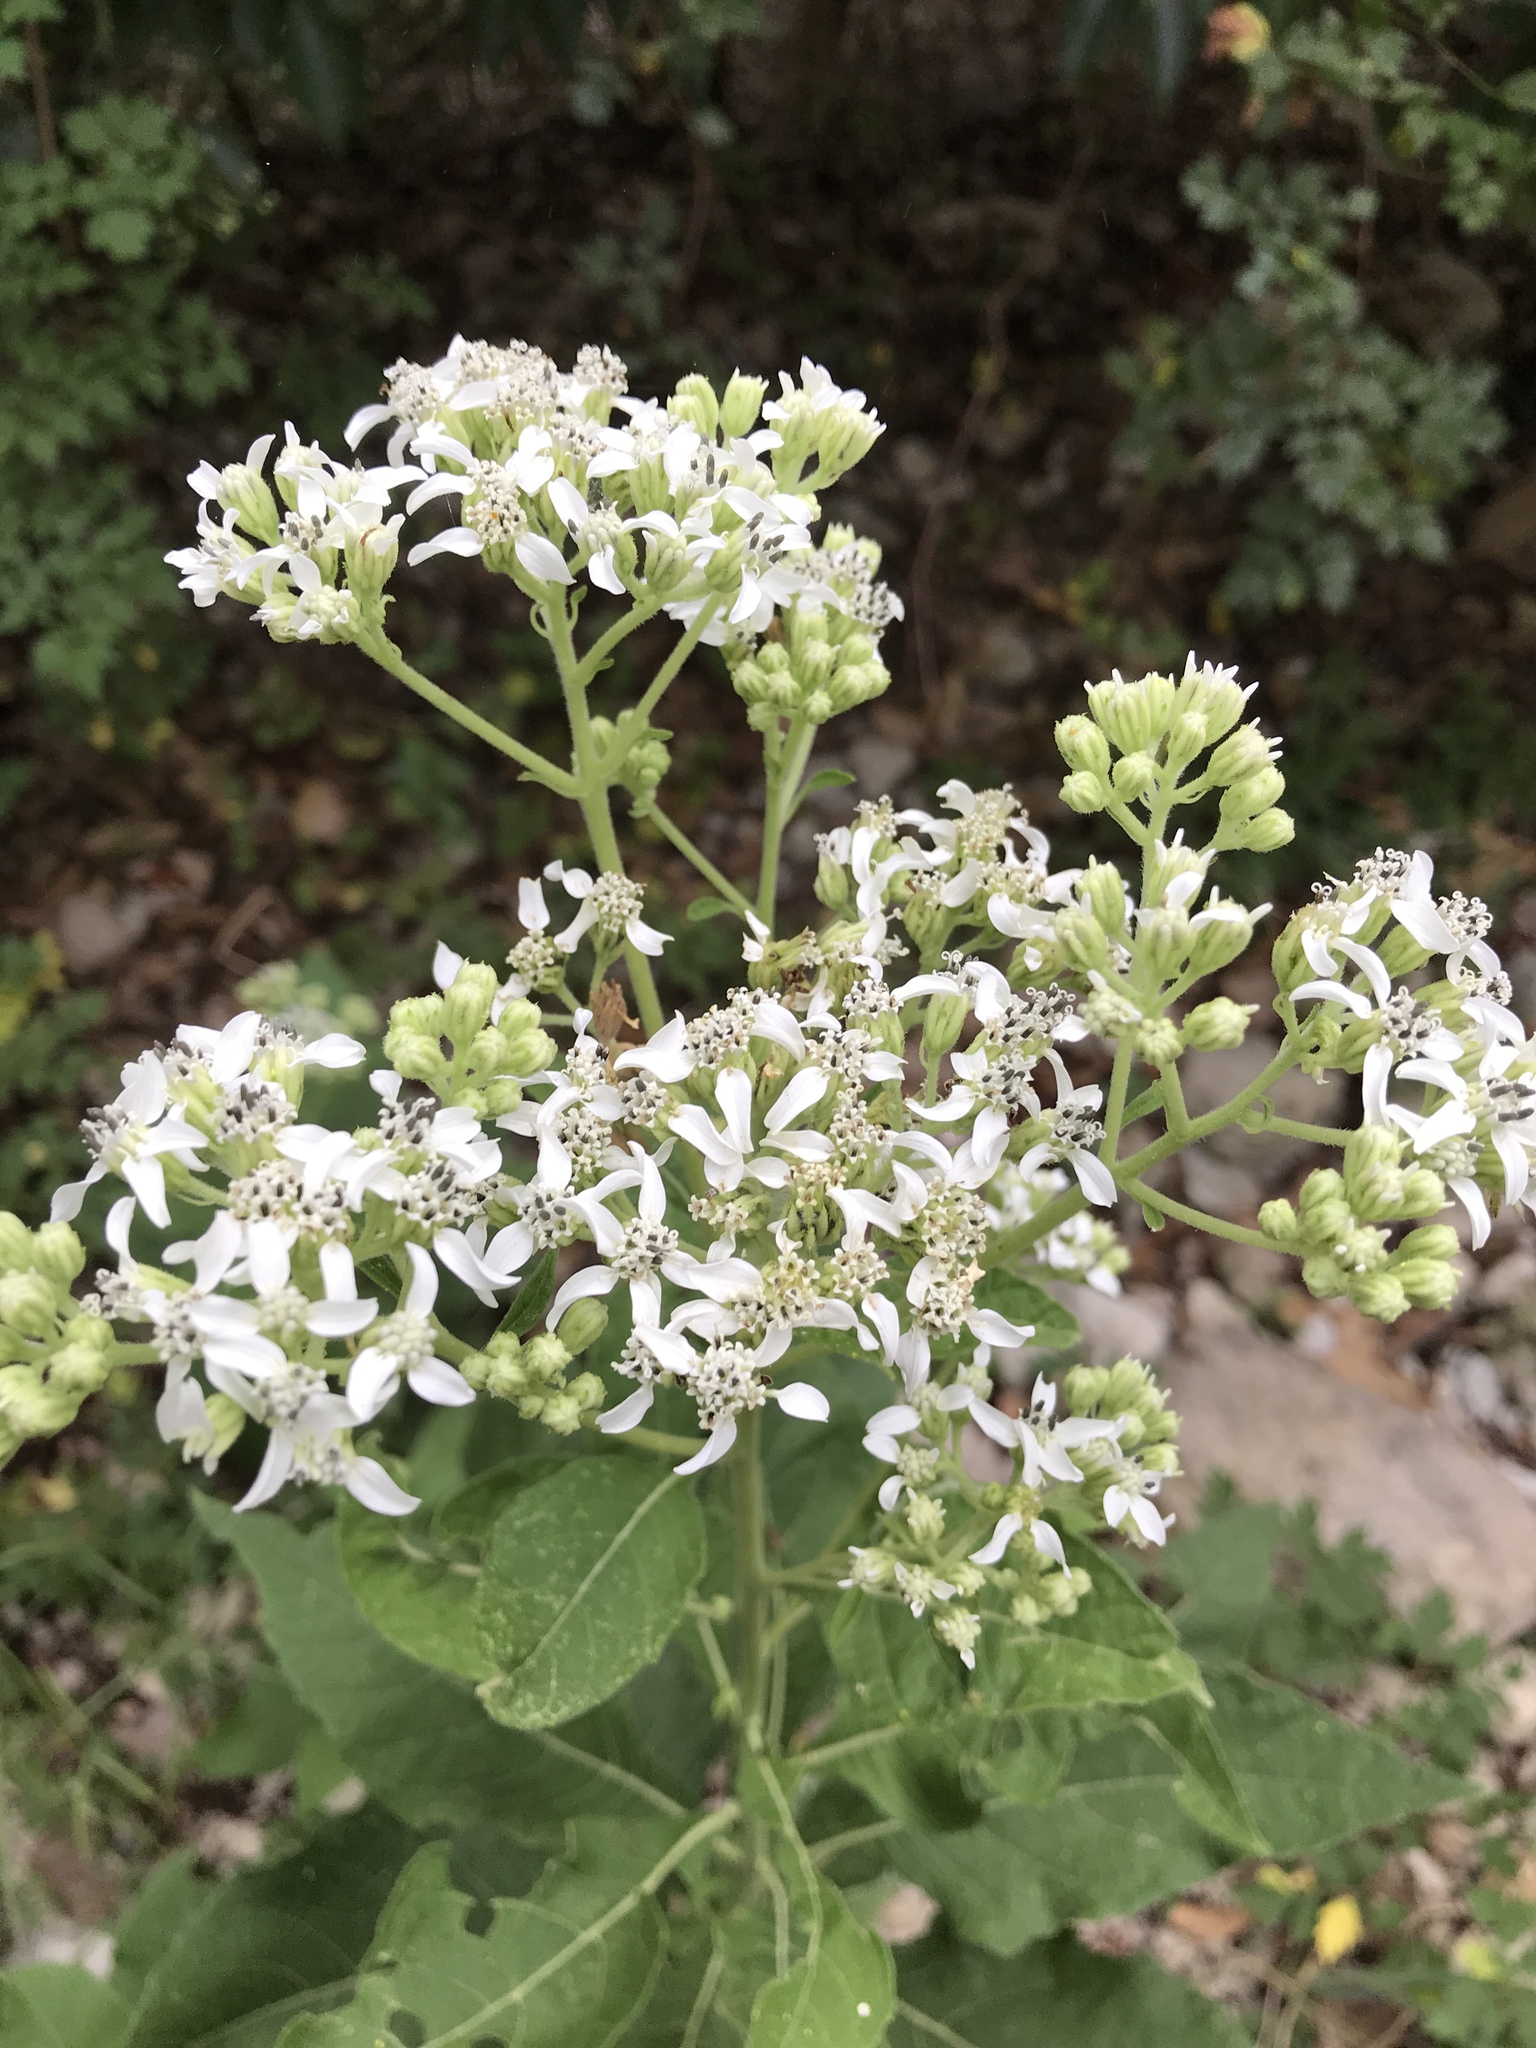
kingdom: Plantae
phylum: Tracheophyta
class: Magnoliopsida
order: Asterales
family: Asteraceae
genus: Verbesina
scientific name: Verbesina virginica
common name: Frostweed
